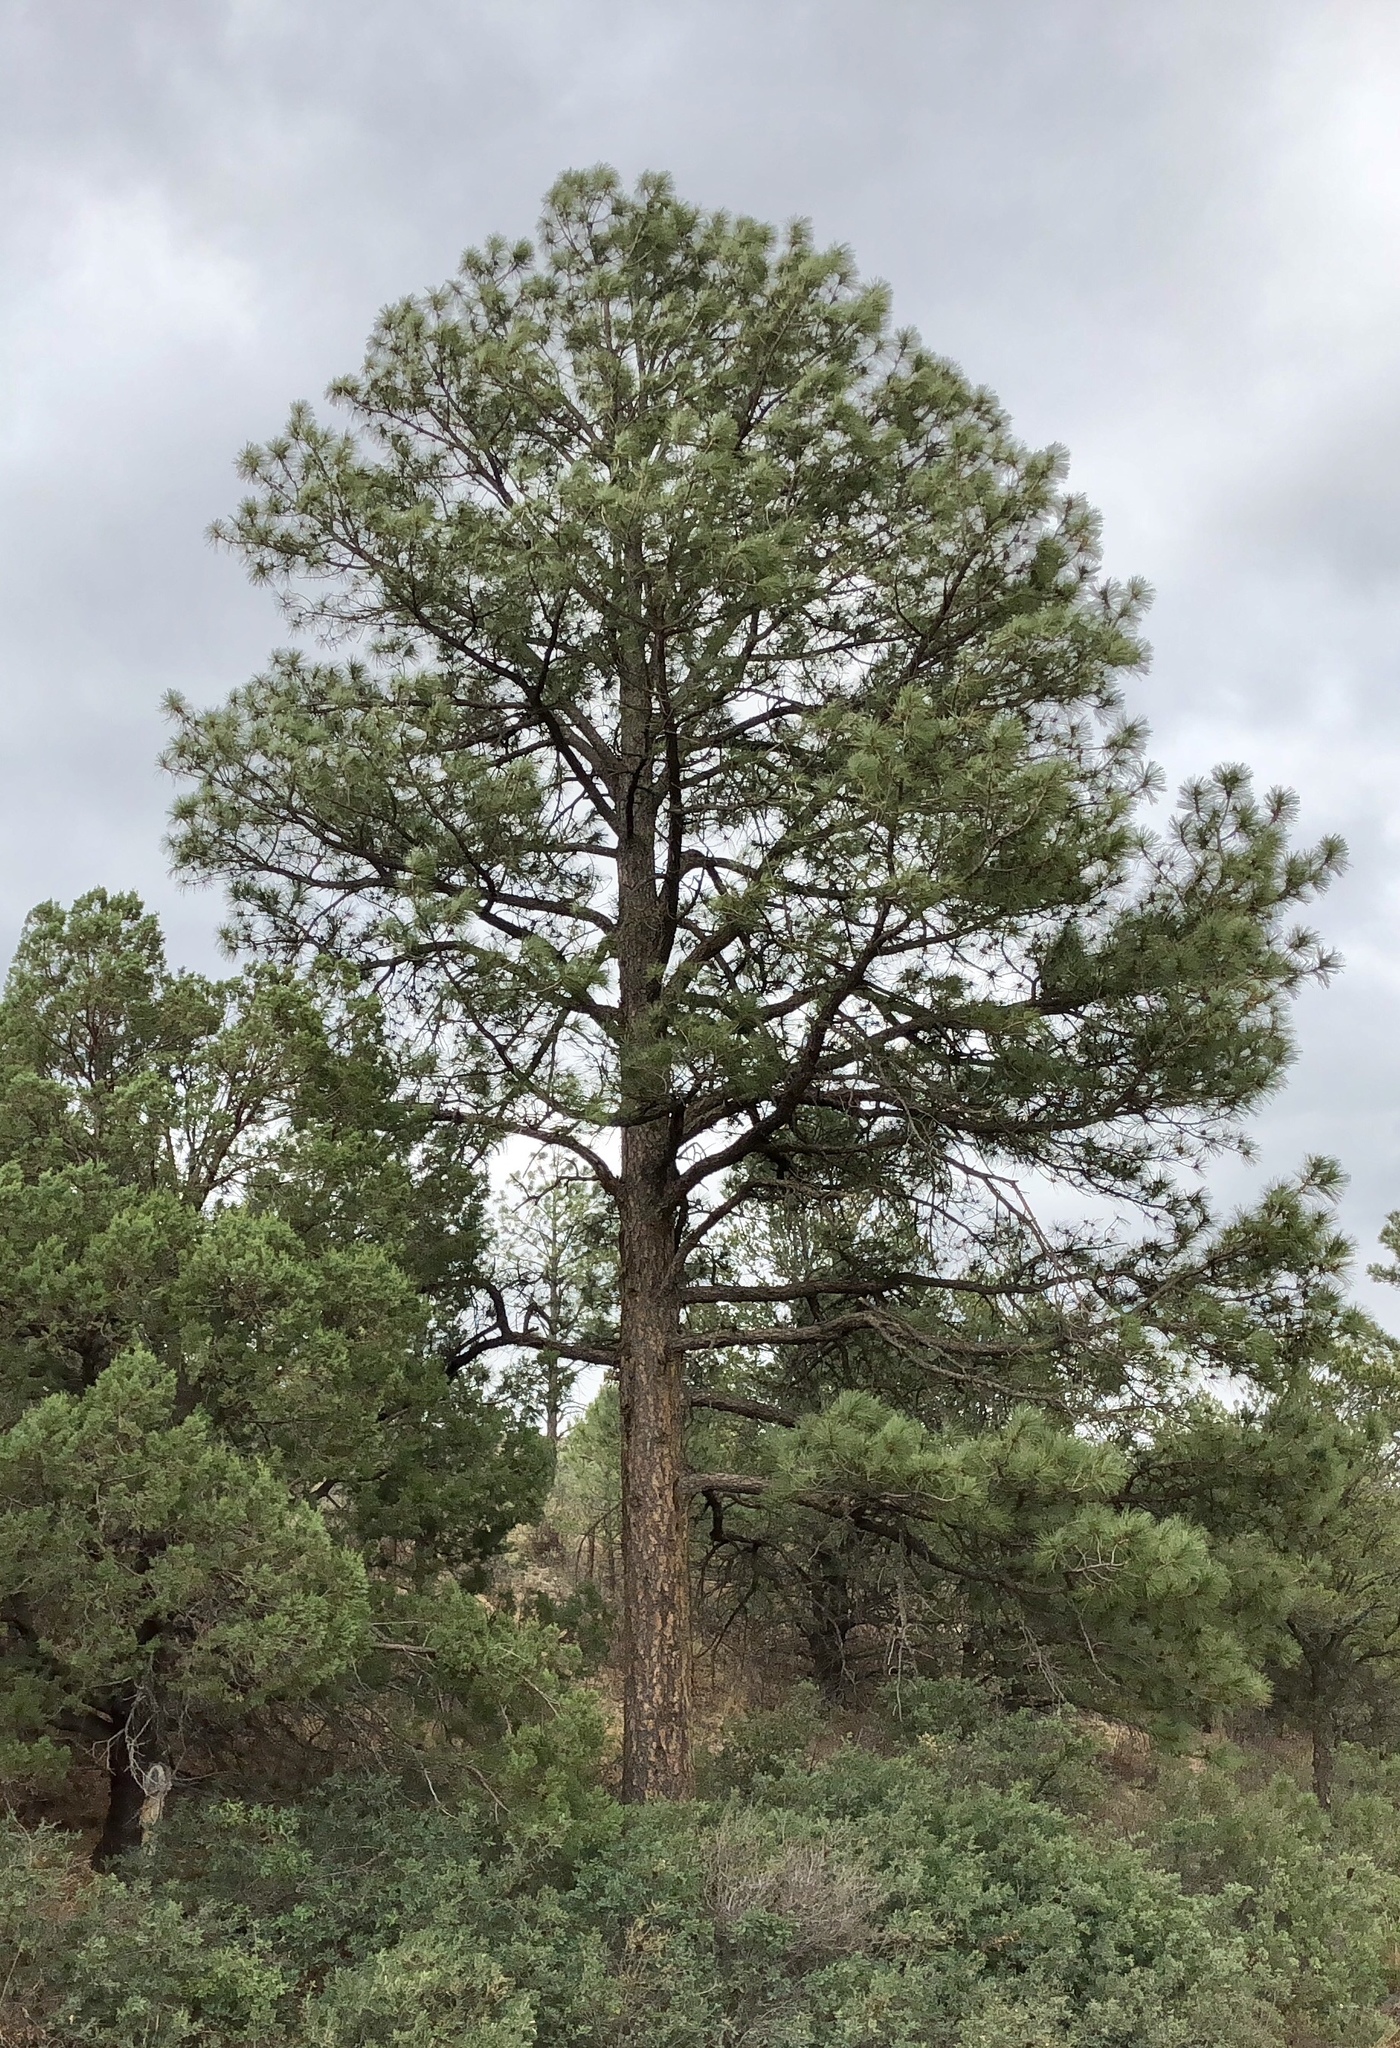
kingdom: Plantae
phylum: Tracheophyta
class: Pinopsida
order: Pinales
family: Pinaceae
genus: Pinus
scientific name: Pinus ponderosa
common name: Western yellow-pine
